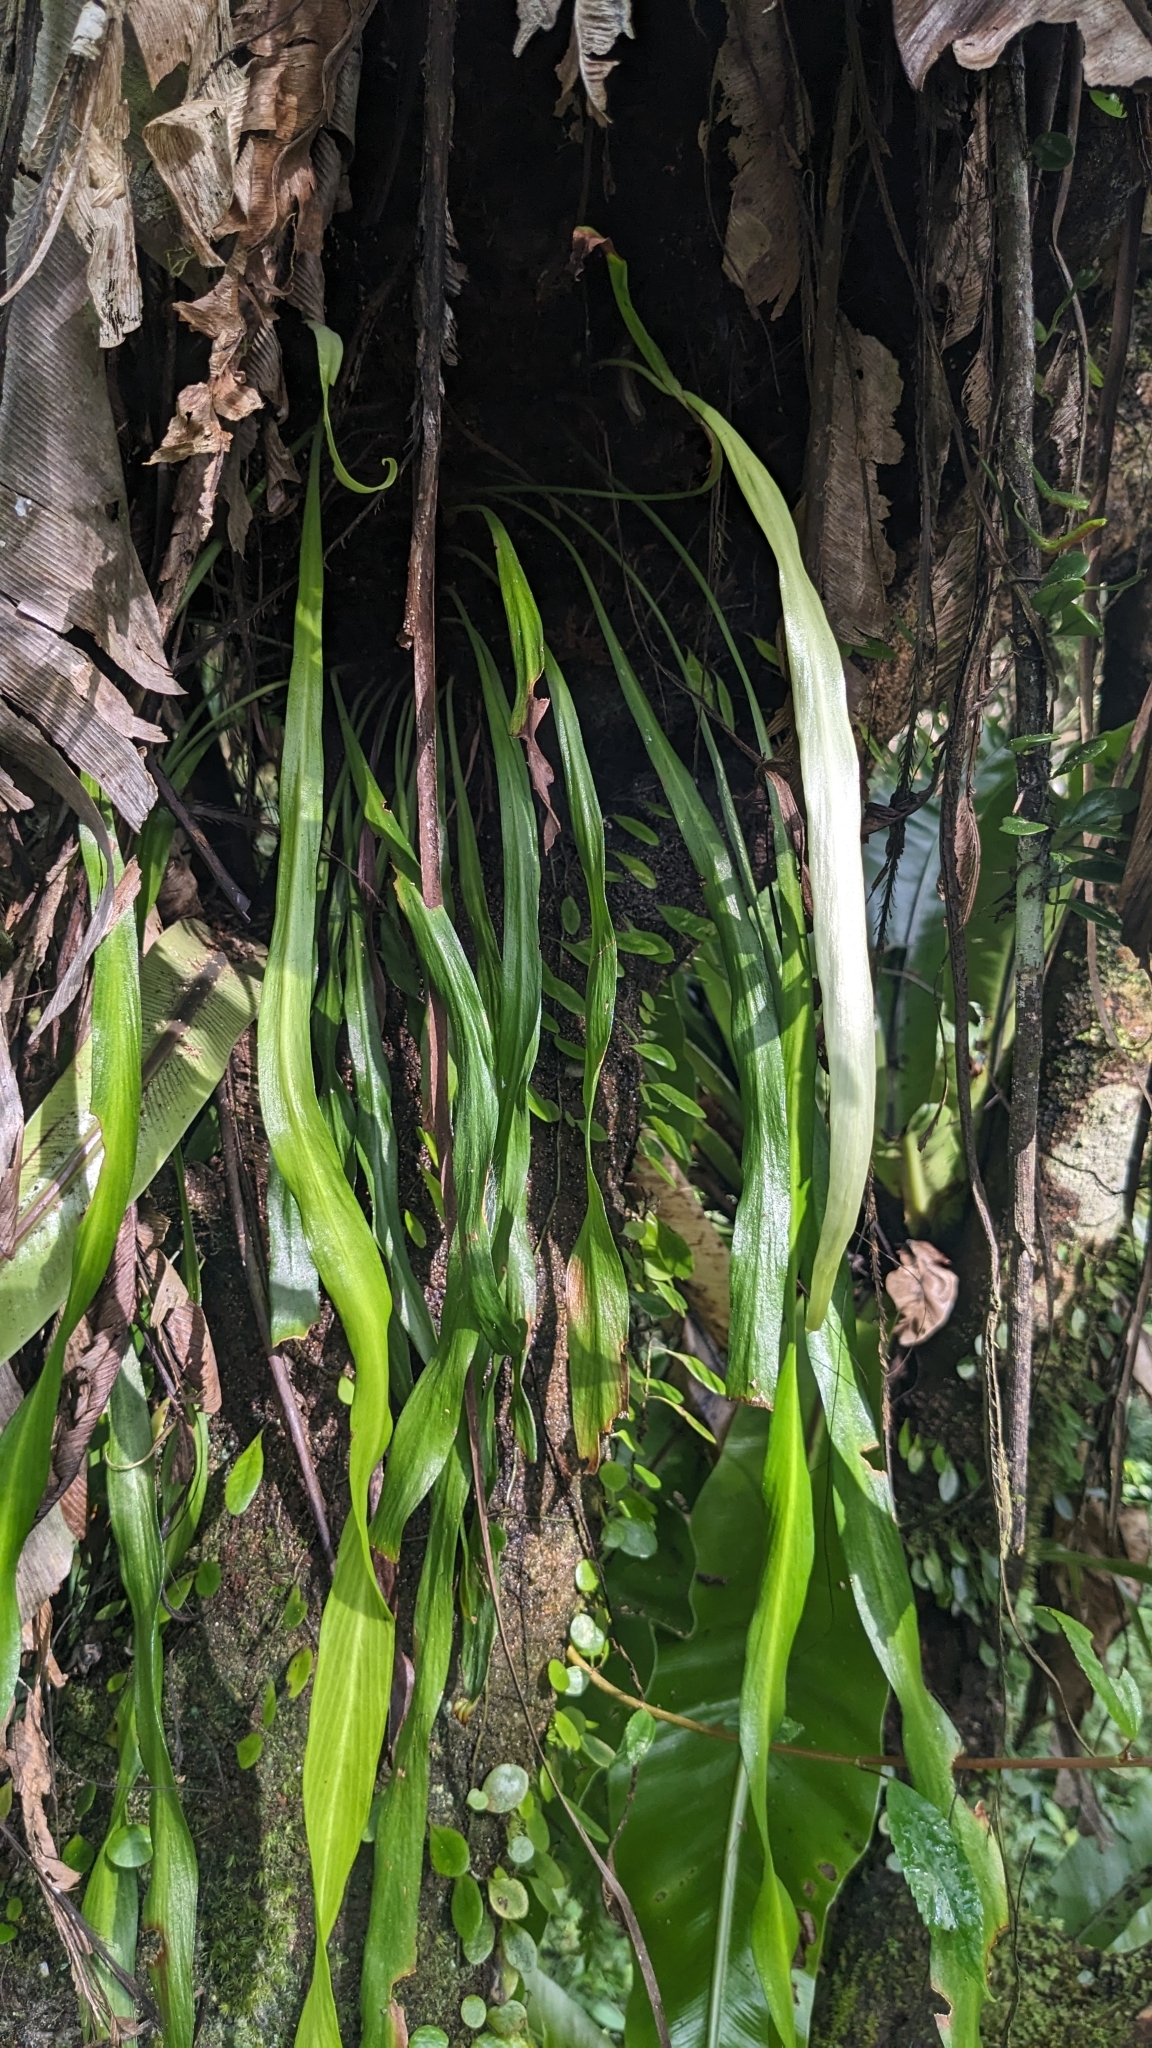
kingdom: Plantae
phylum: Tracheophyta
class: Polypodiopsida
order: Polypodiales
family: Pteridaceae
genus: Haplopteris
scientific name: Haplopteris elongata
